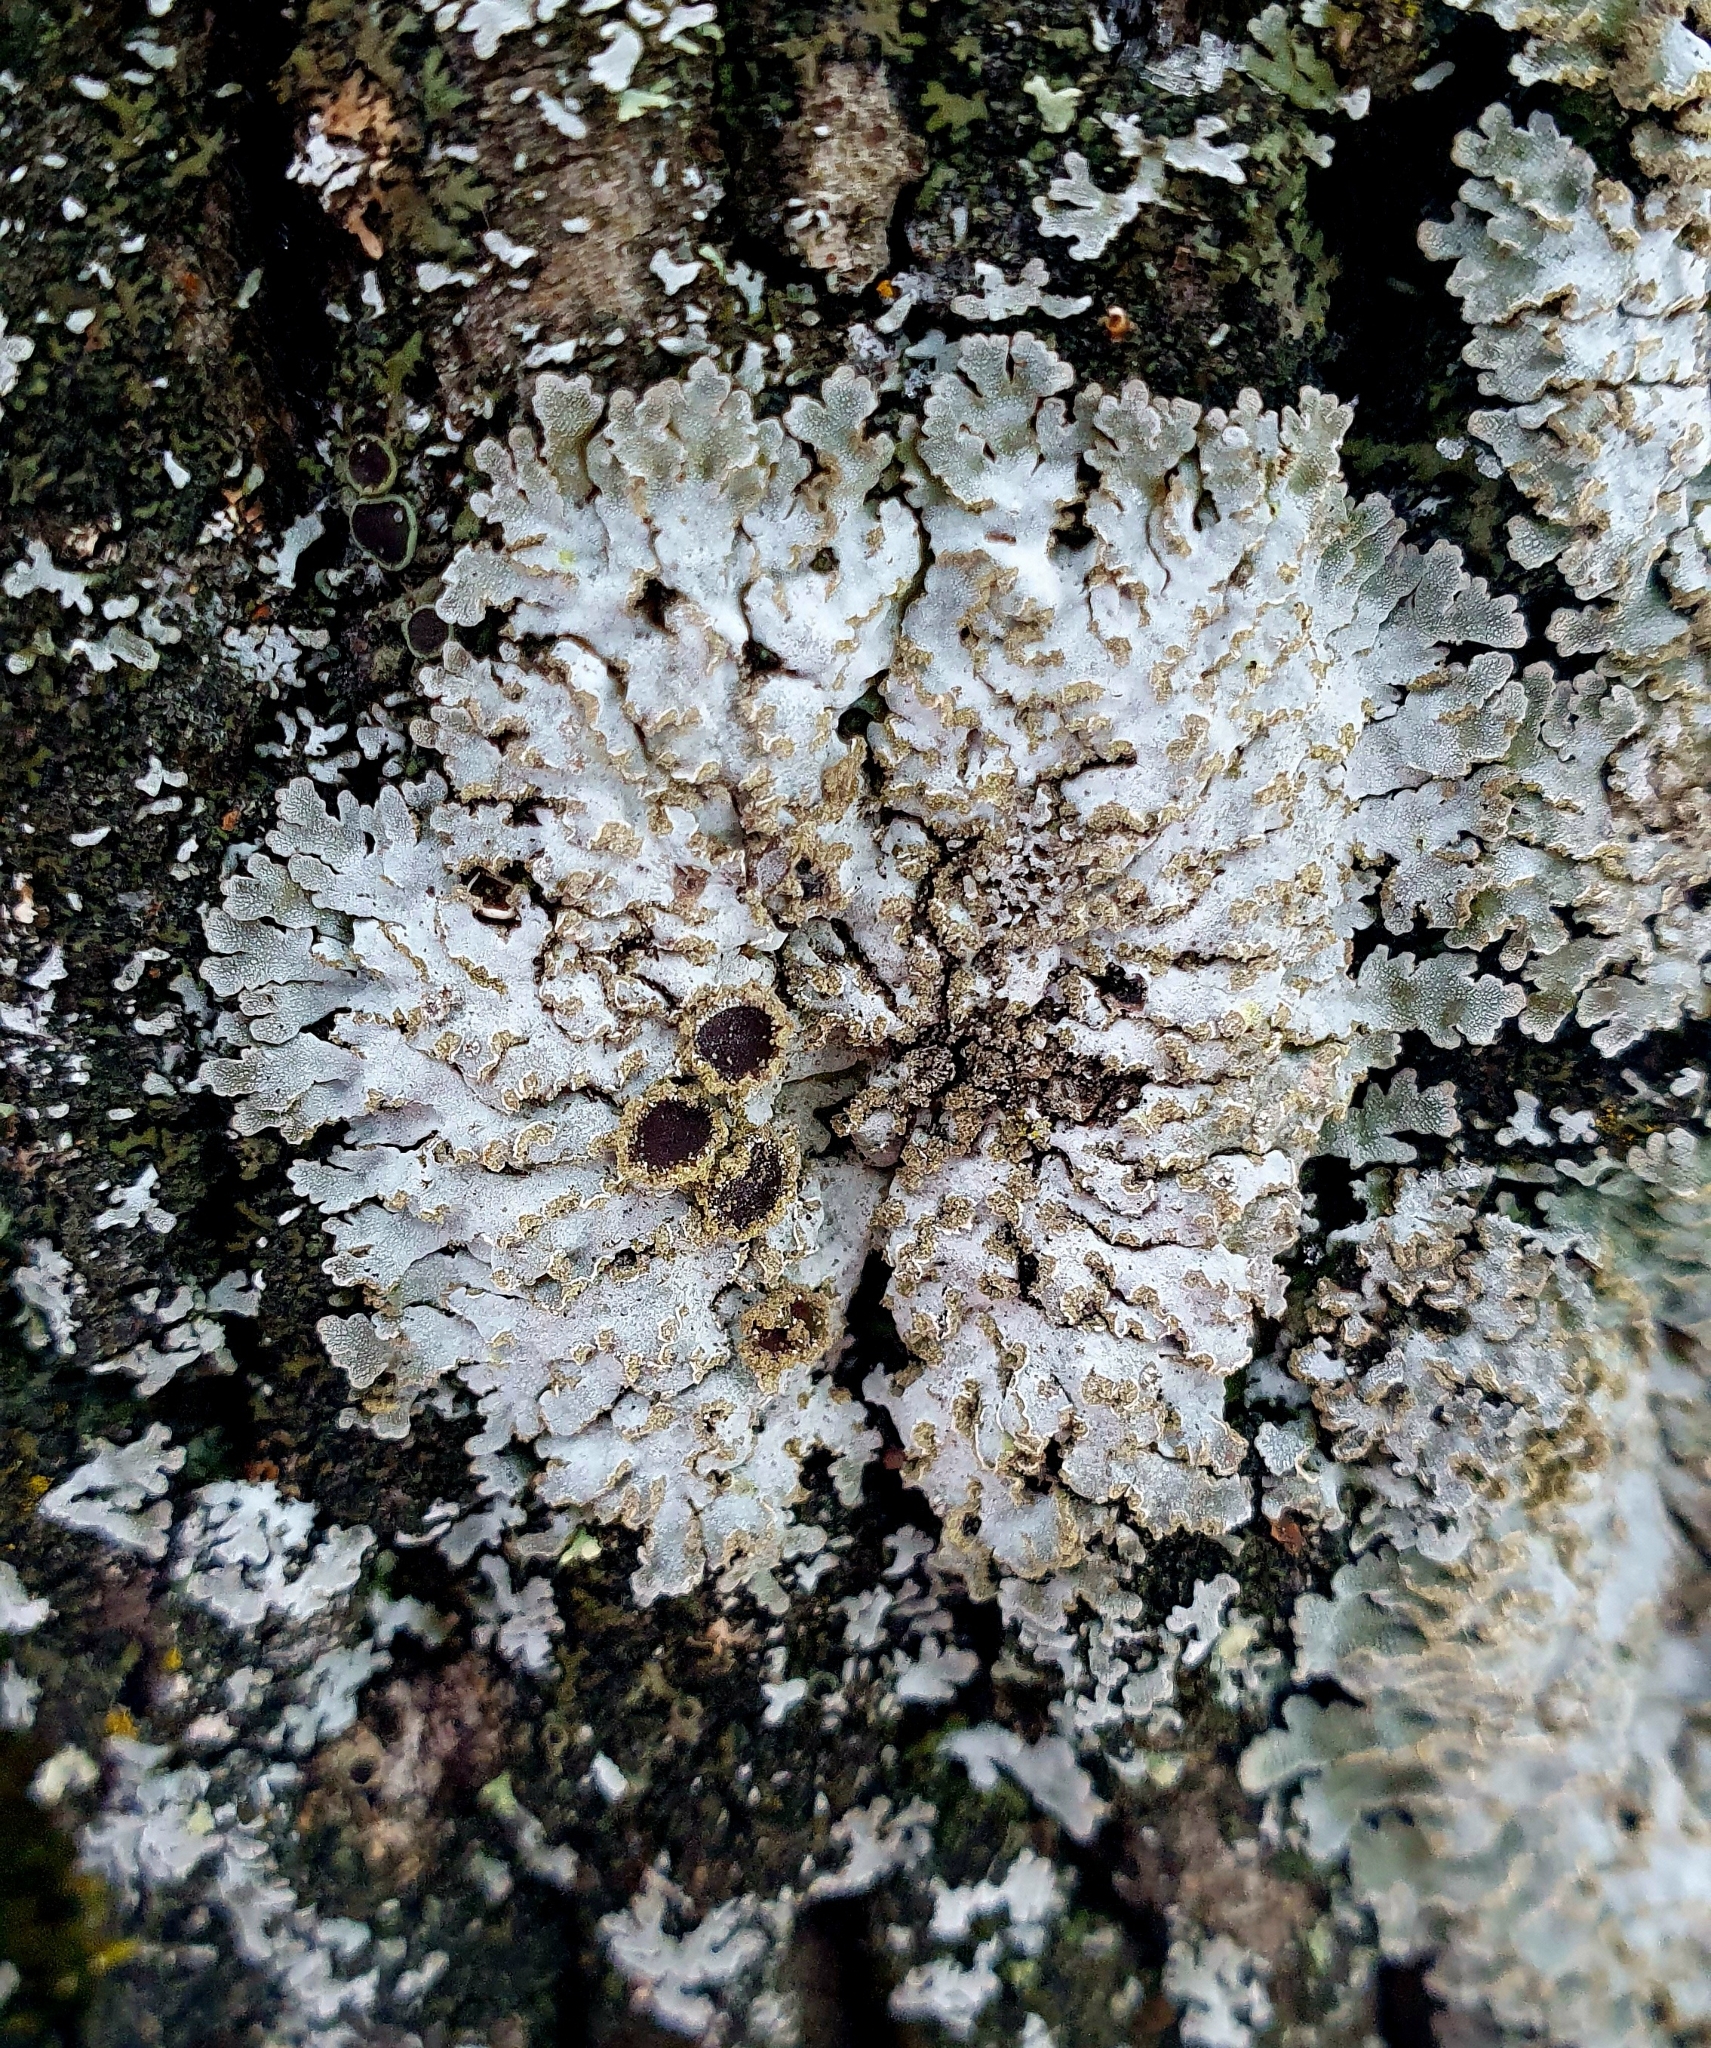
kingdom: Fungi
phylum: Ascomycota
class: Lecanoromycetes
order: Caliciales
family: Physciaceae
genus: Physconia
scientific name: Physconia enteroxantha
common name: Yellow-edged frost lichen
